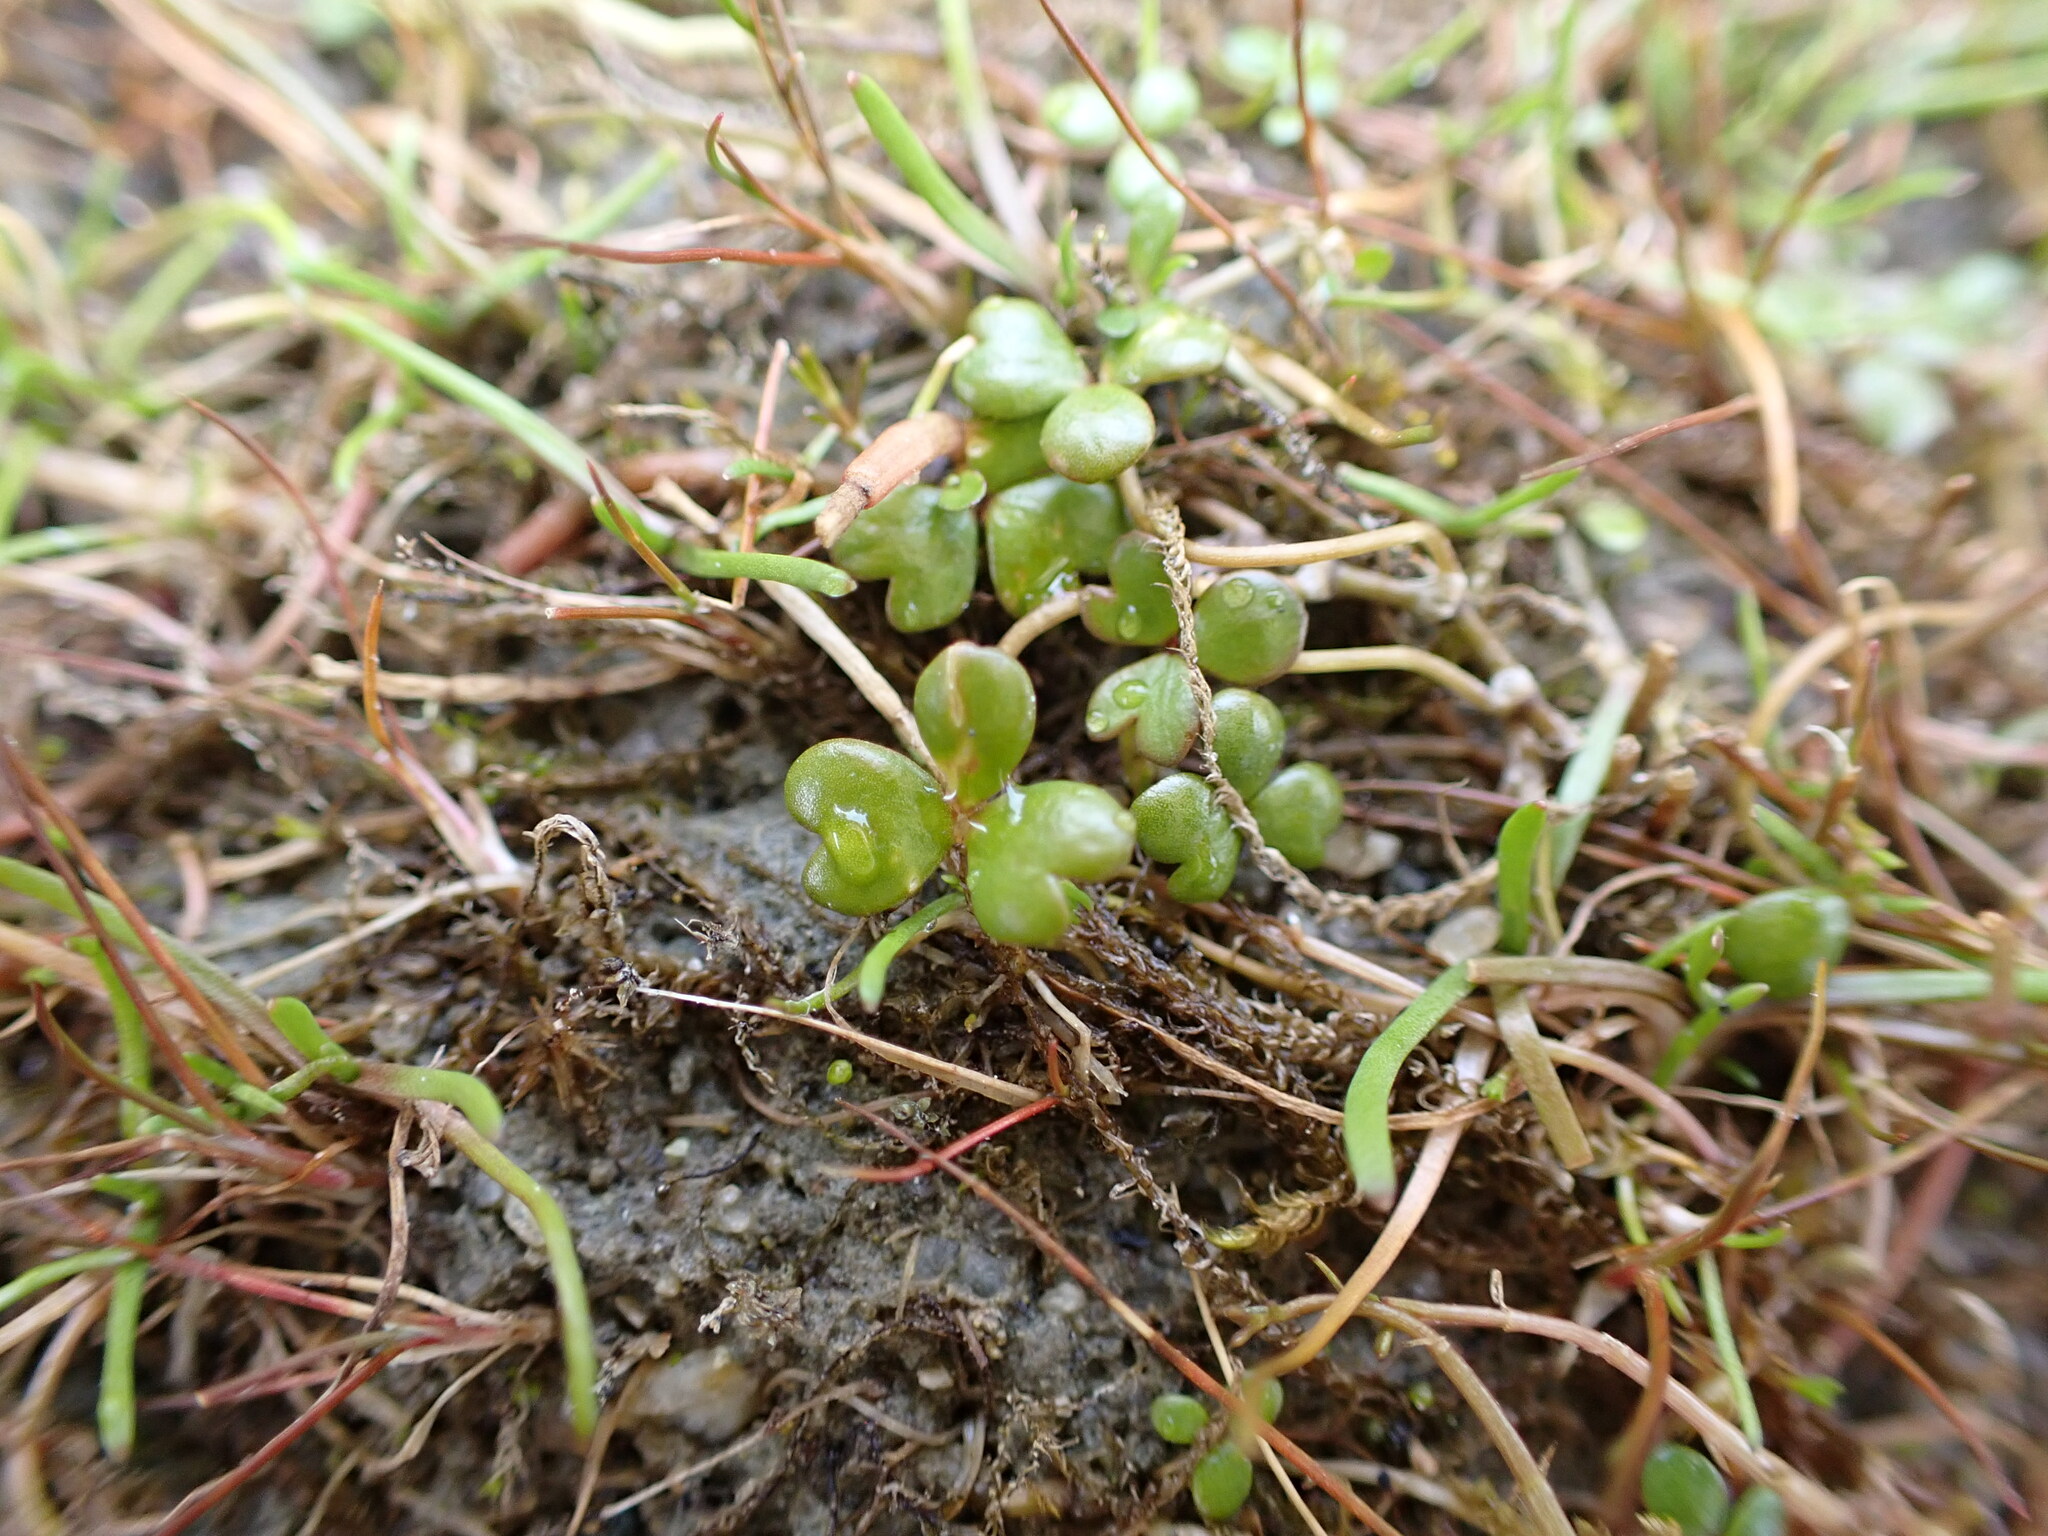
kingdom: Plantae
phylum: Tracheophyta
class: Magnoliopsida
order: Apiales
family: Araliaceae
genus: Hydrocotyle
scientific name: Hydrocotyle hydrophila
